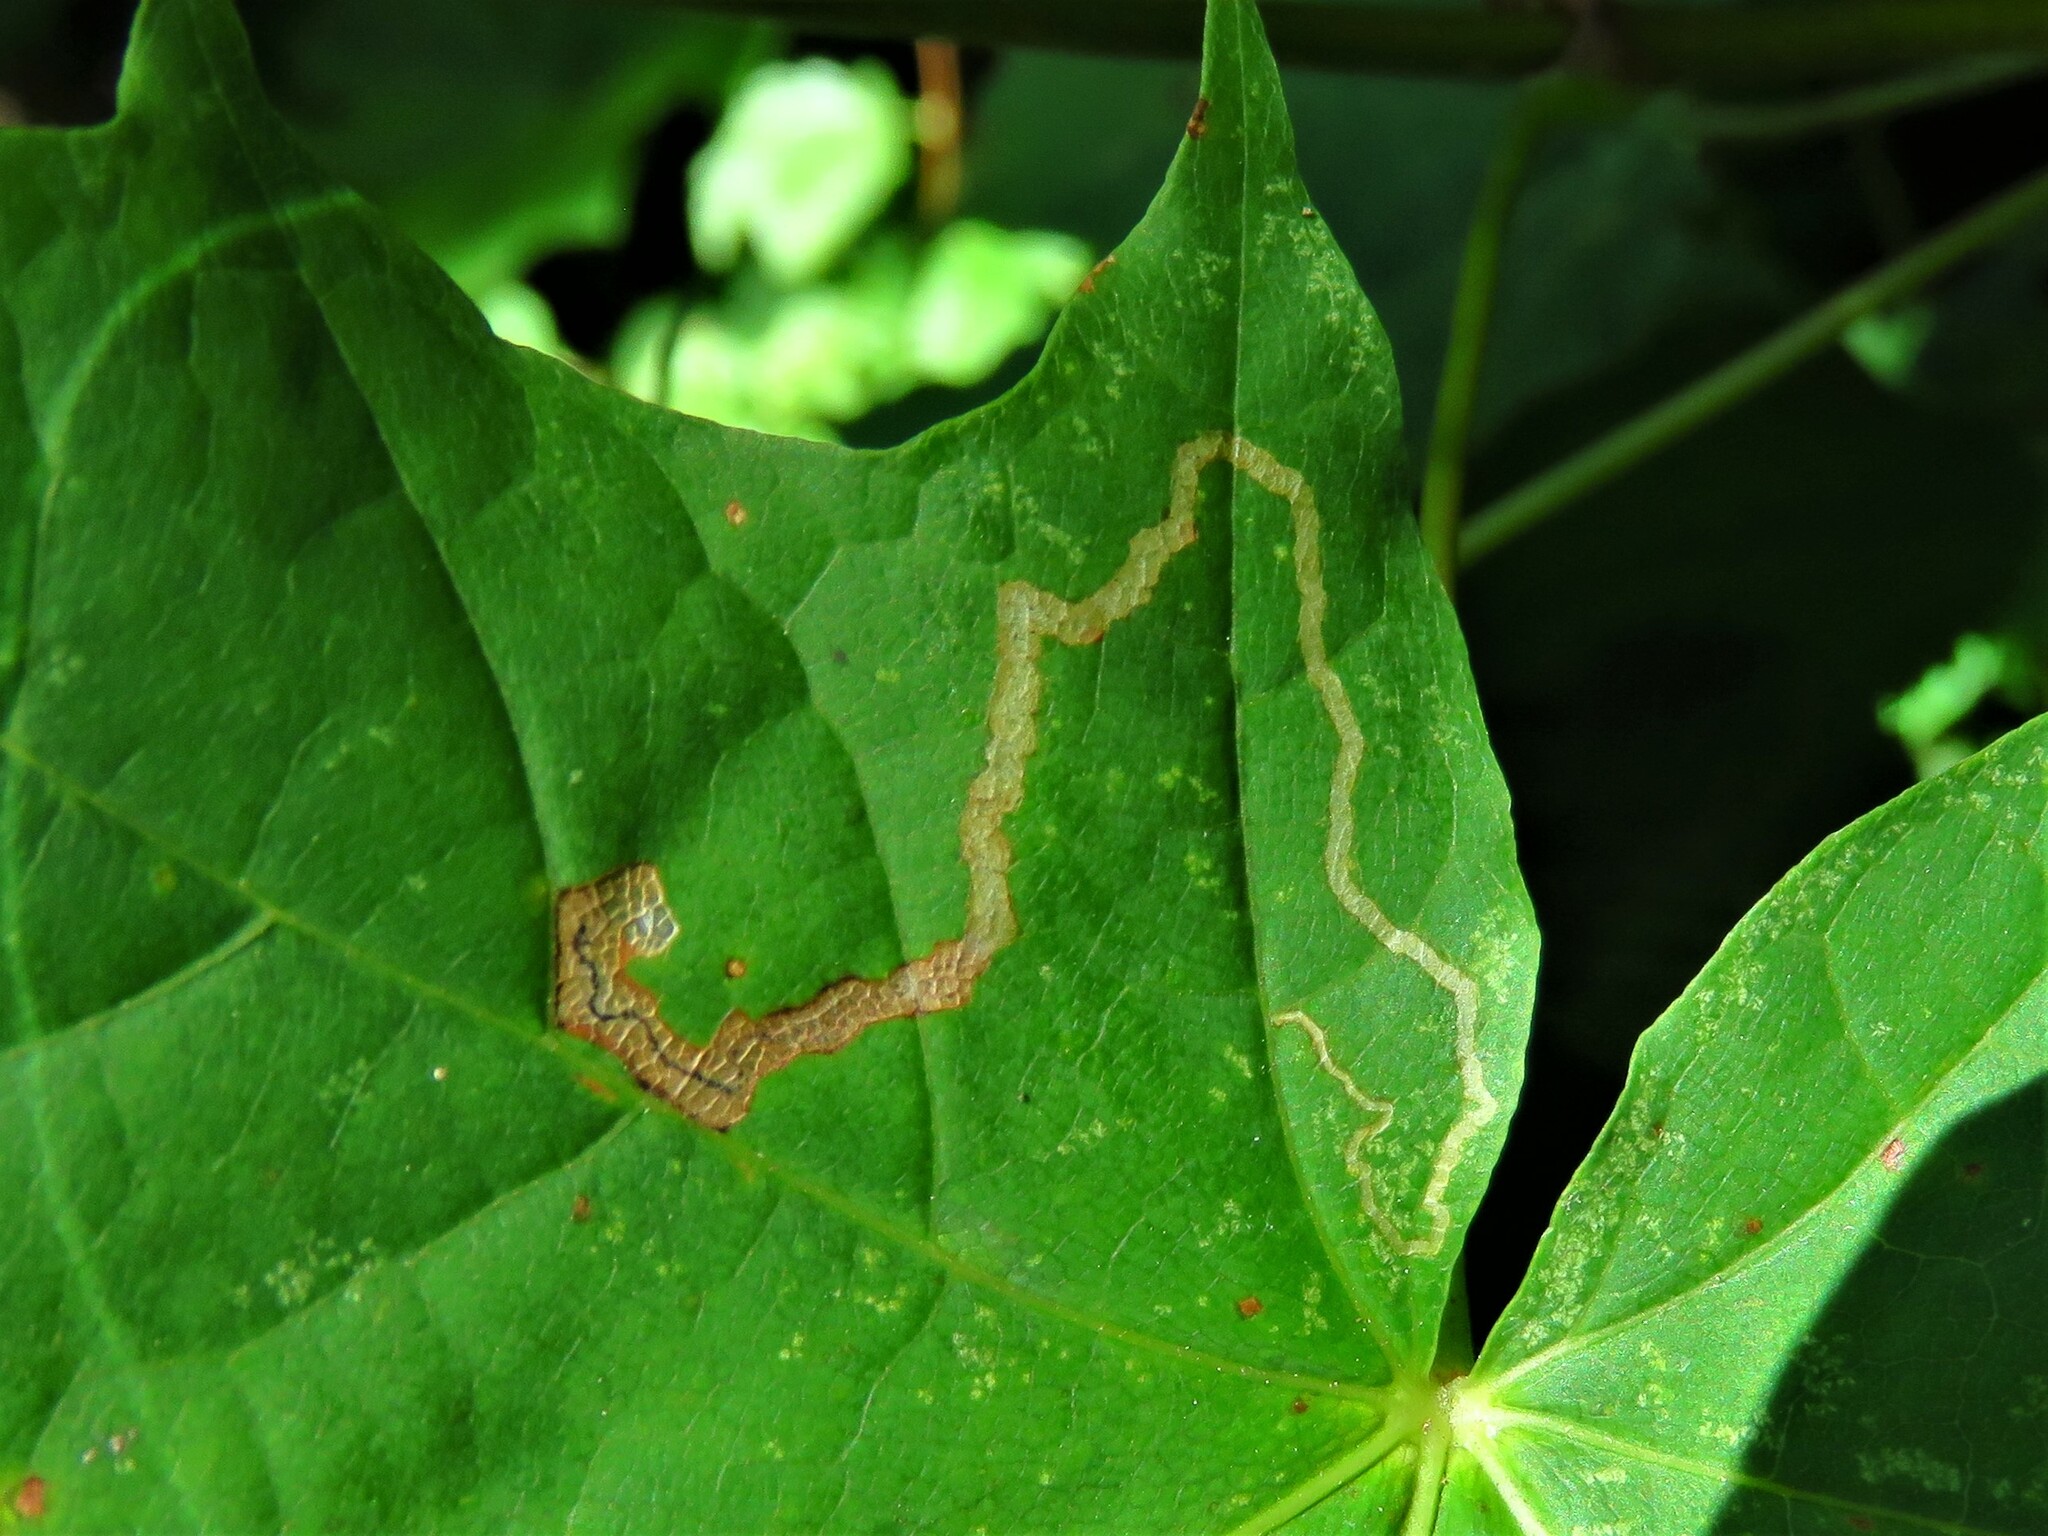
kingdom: Animalia
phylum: Arthropoda
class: Insecta
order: Lepidoptera
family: Nepticulidae
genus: Stigmella
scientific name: Stigmella aceris
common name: Scarce maple pigmy
